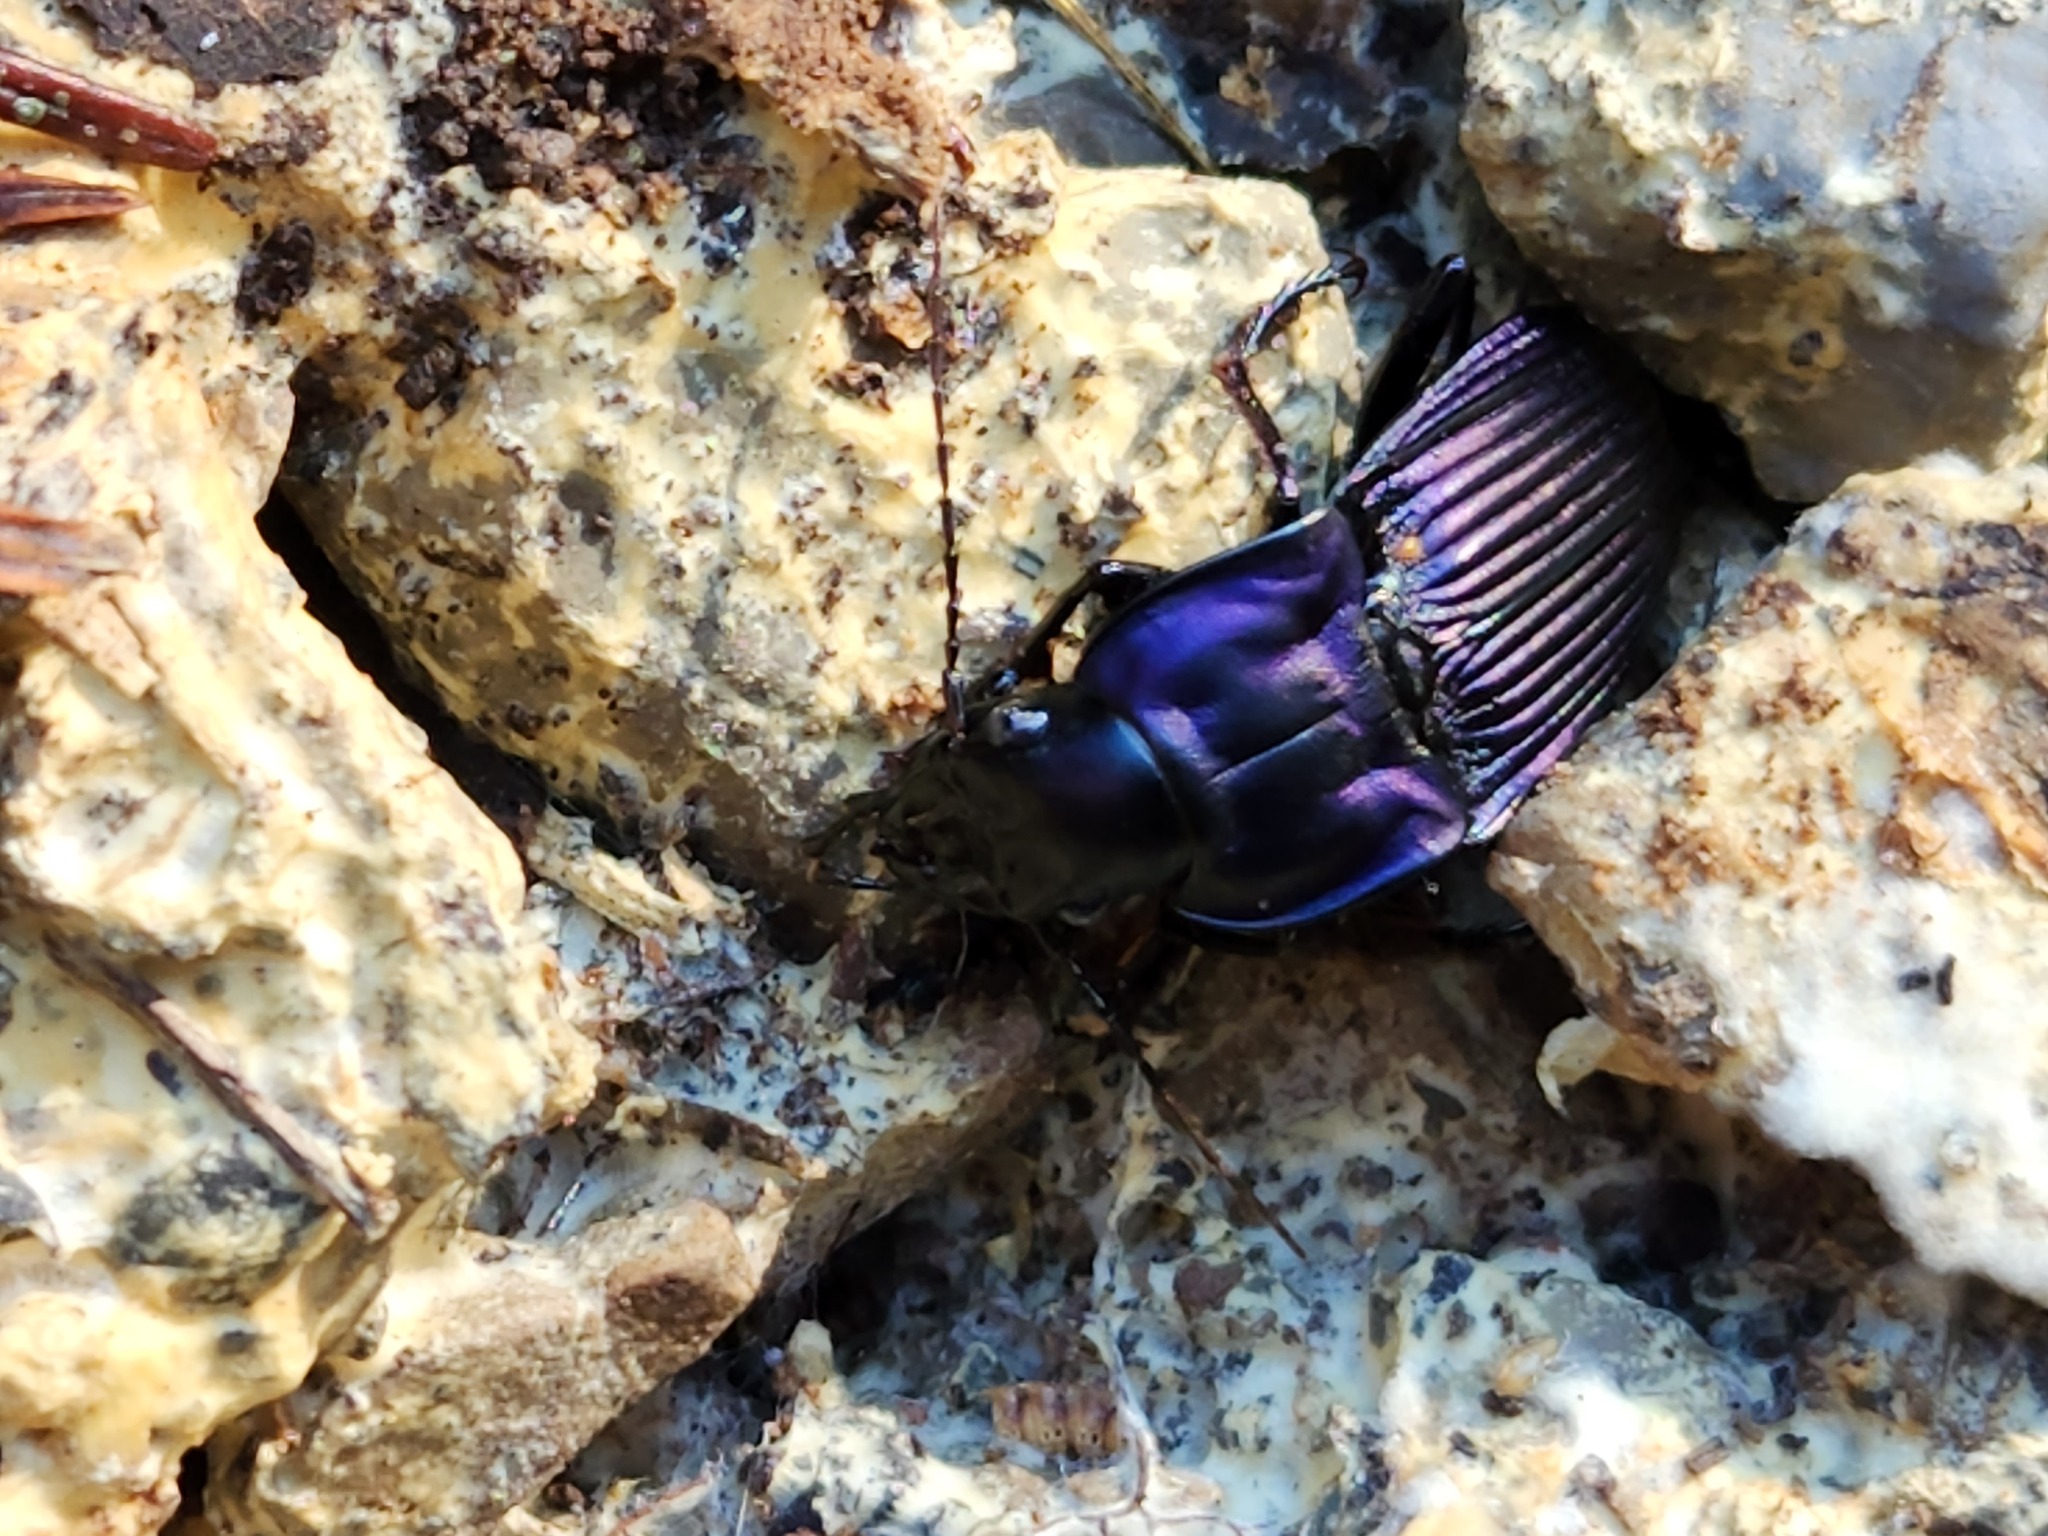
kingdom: Animalia
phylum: Arthropoda
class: Insecta
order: Coleoptera
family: Carabidae
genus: Dicaelus
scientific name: Dicaelus purpuratus
